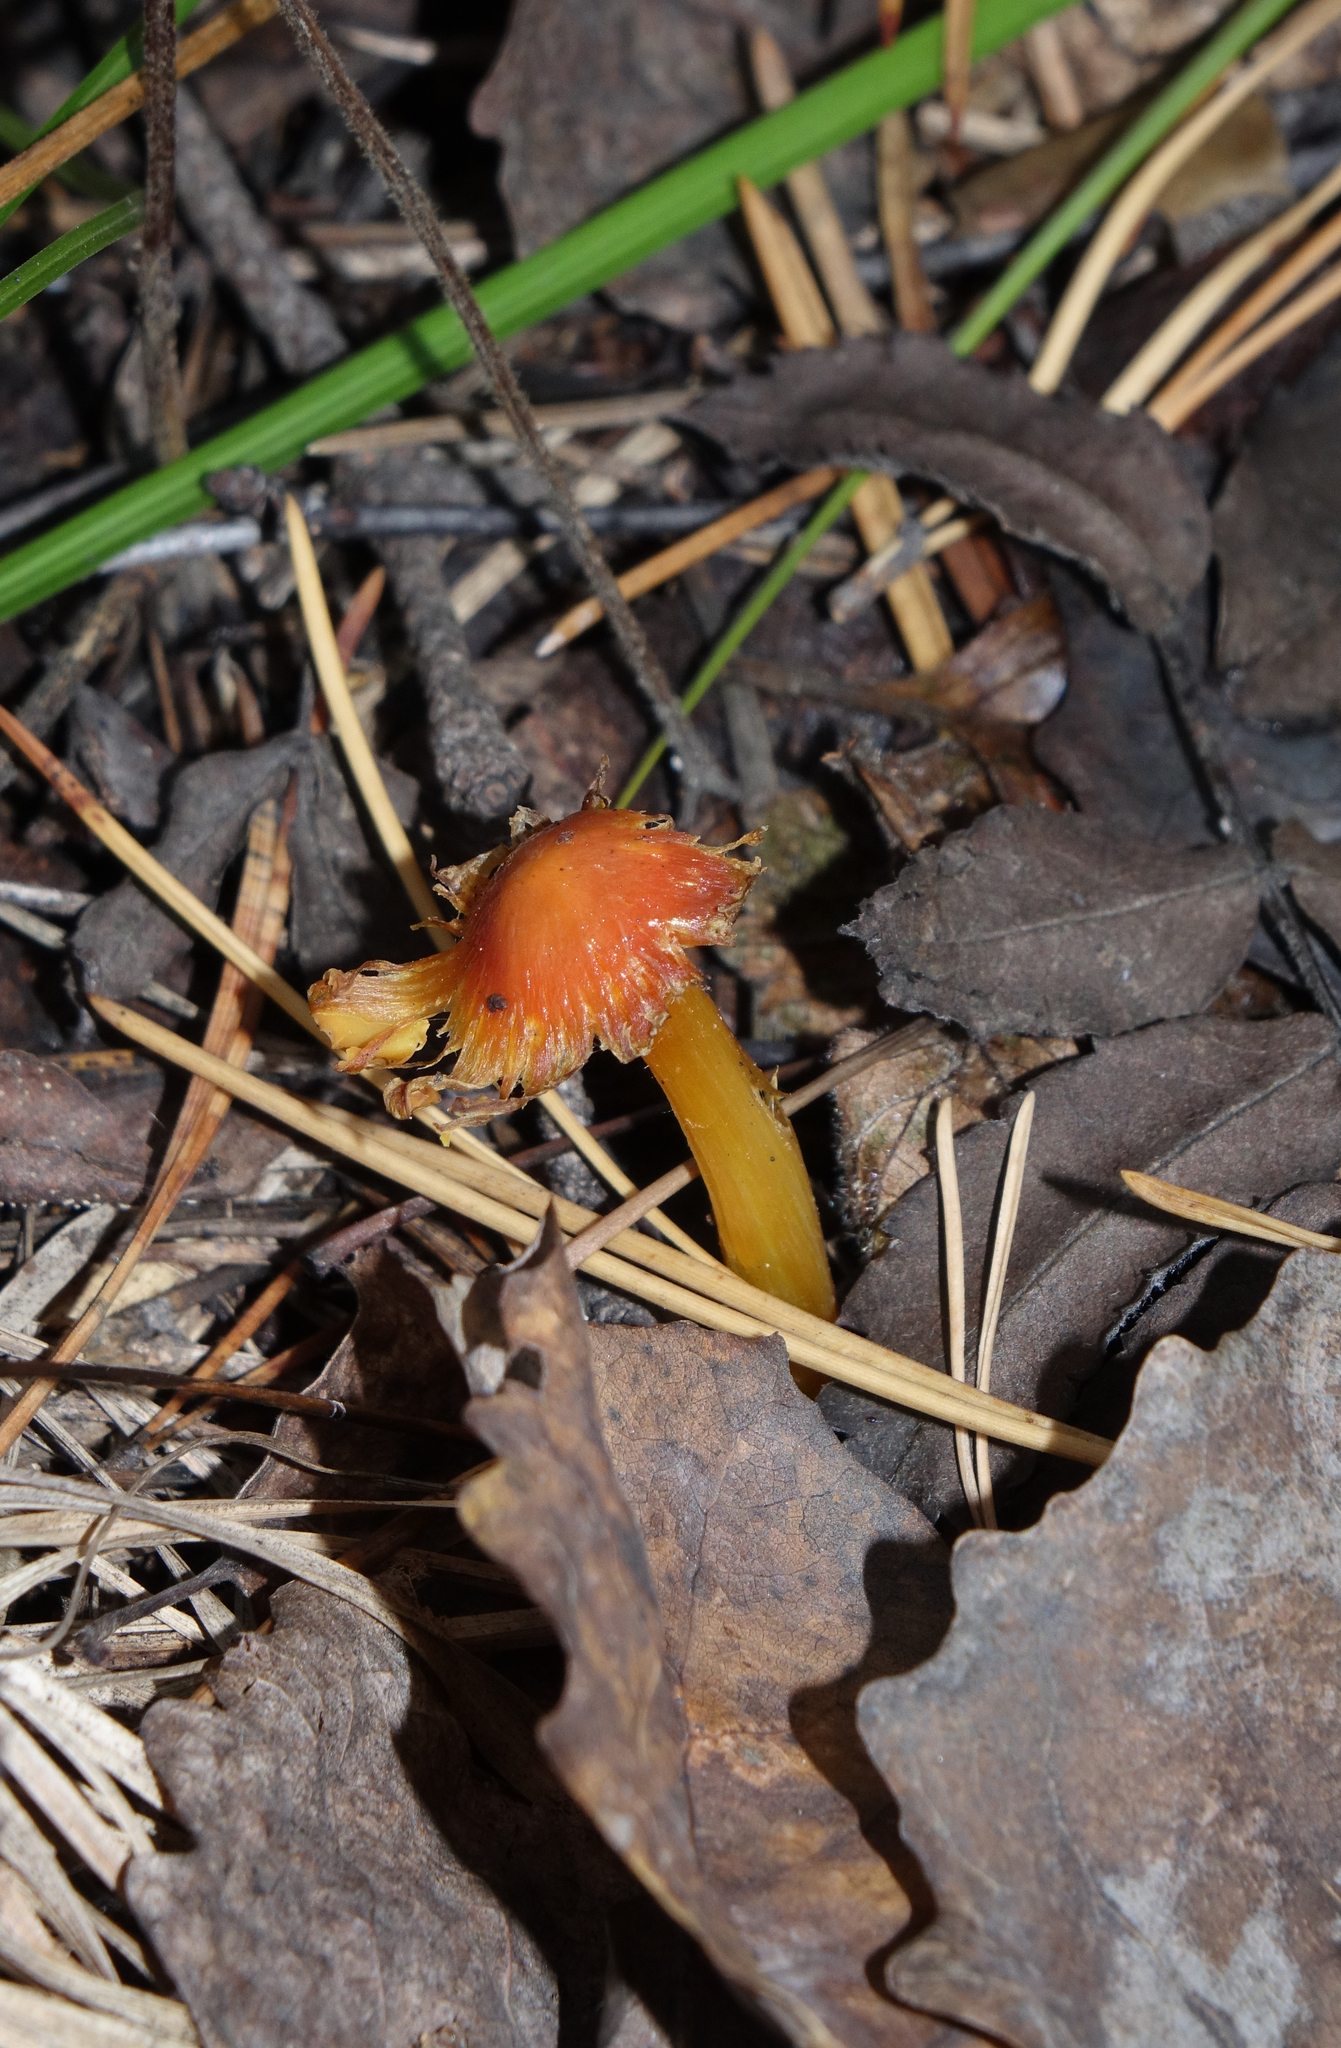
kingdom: Fungi
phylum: Basidiomycota
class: Agaricomycetes
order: Agaricales
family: Hygrophoraceae
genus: Hygrocybe
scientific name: Hygrocybe conica
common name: Blackening wax-cap
